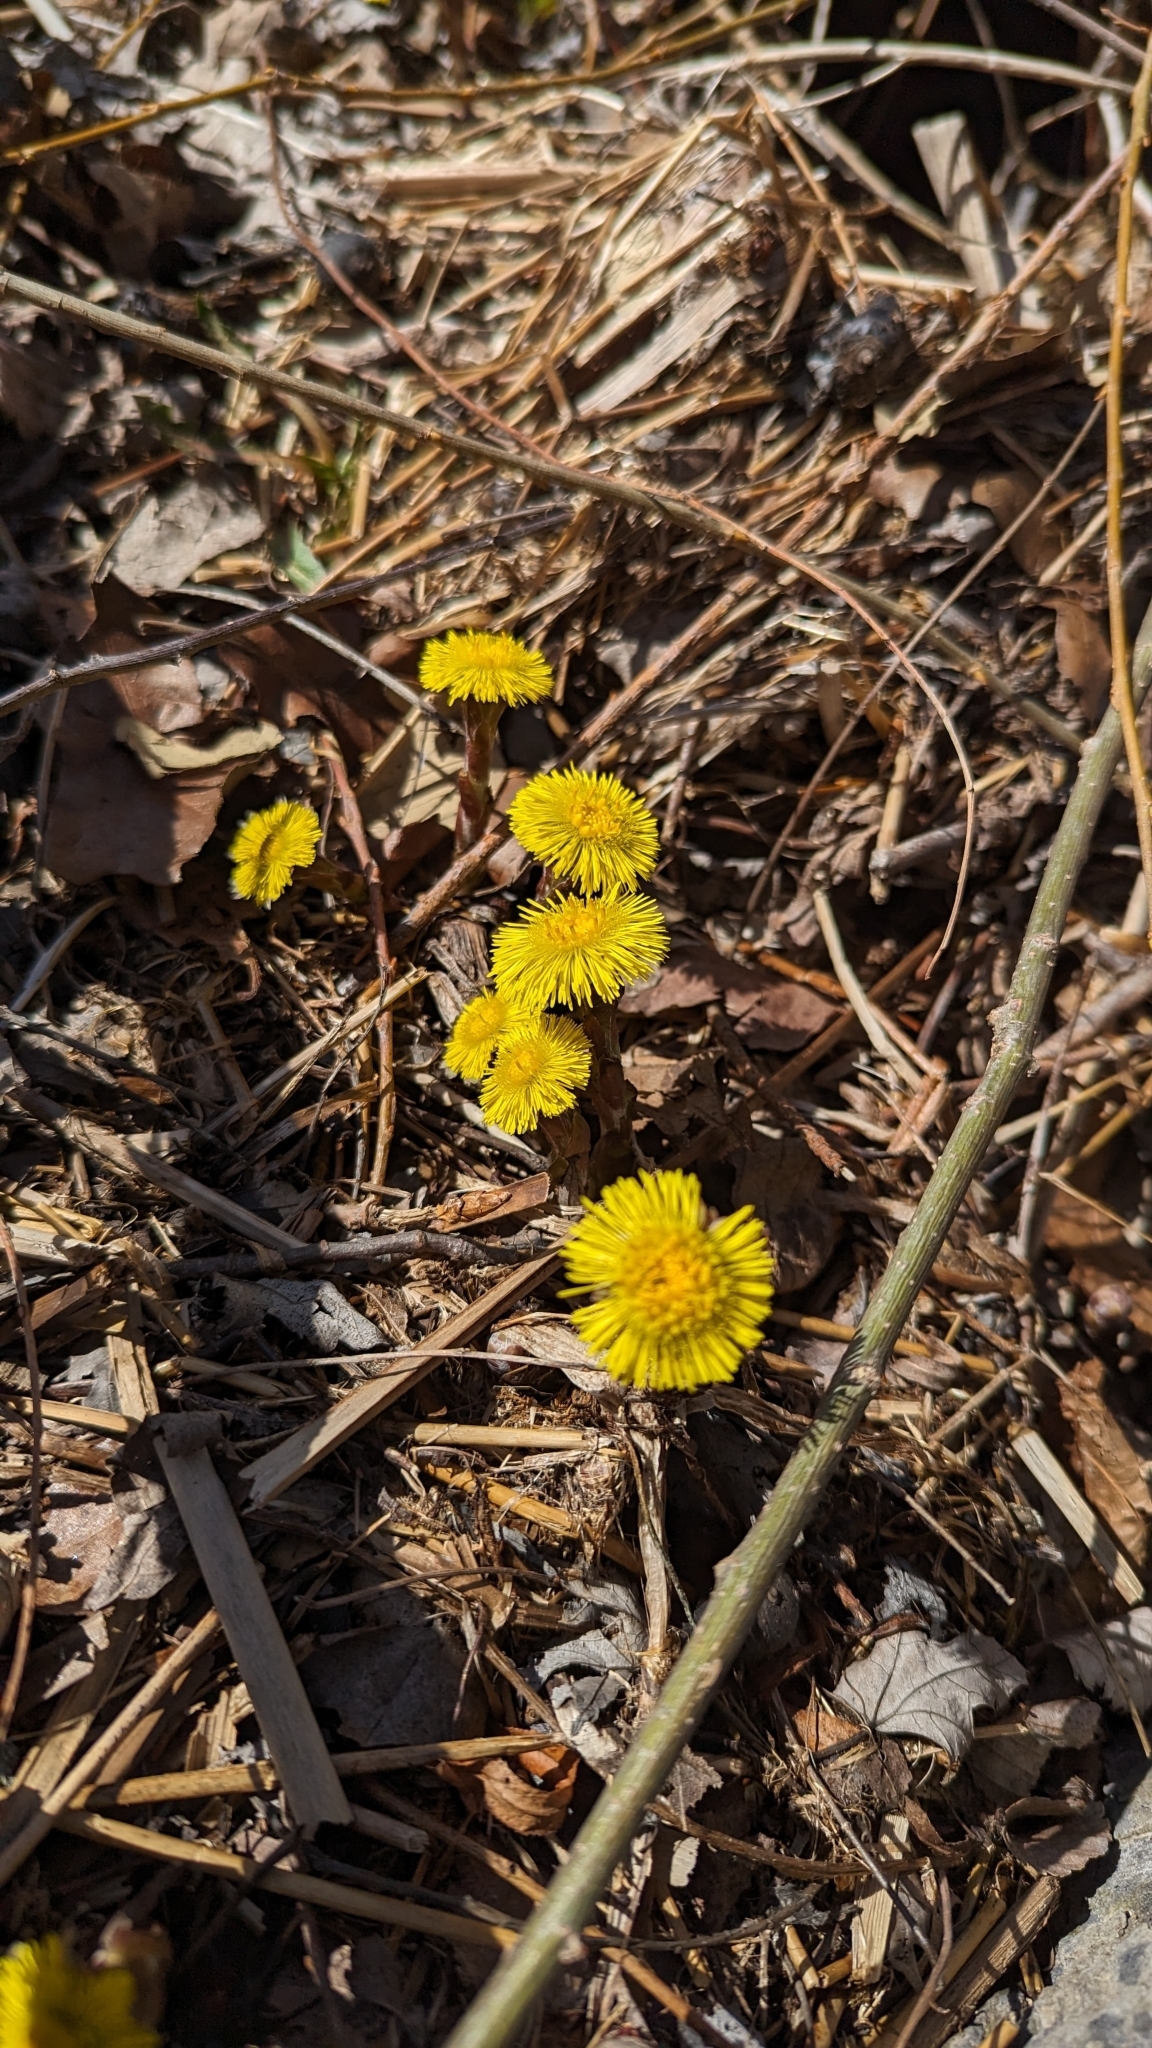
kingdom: Plantae
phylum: Tracheophyta
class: Magnoliopsida
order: Asterales
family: Asteraceae
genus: Tussilago
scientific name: Tussilago farfara
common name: Coltsfoot
